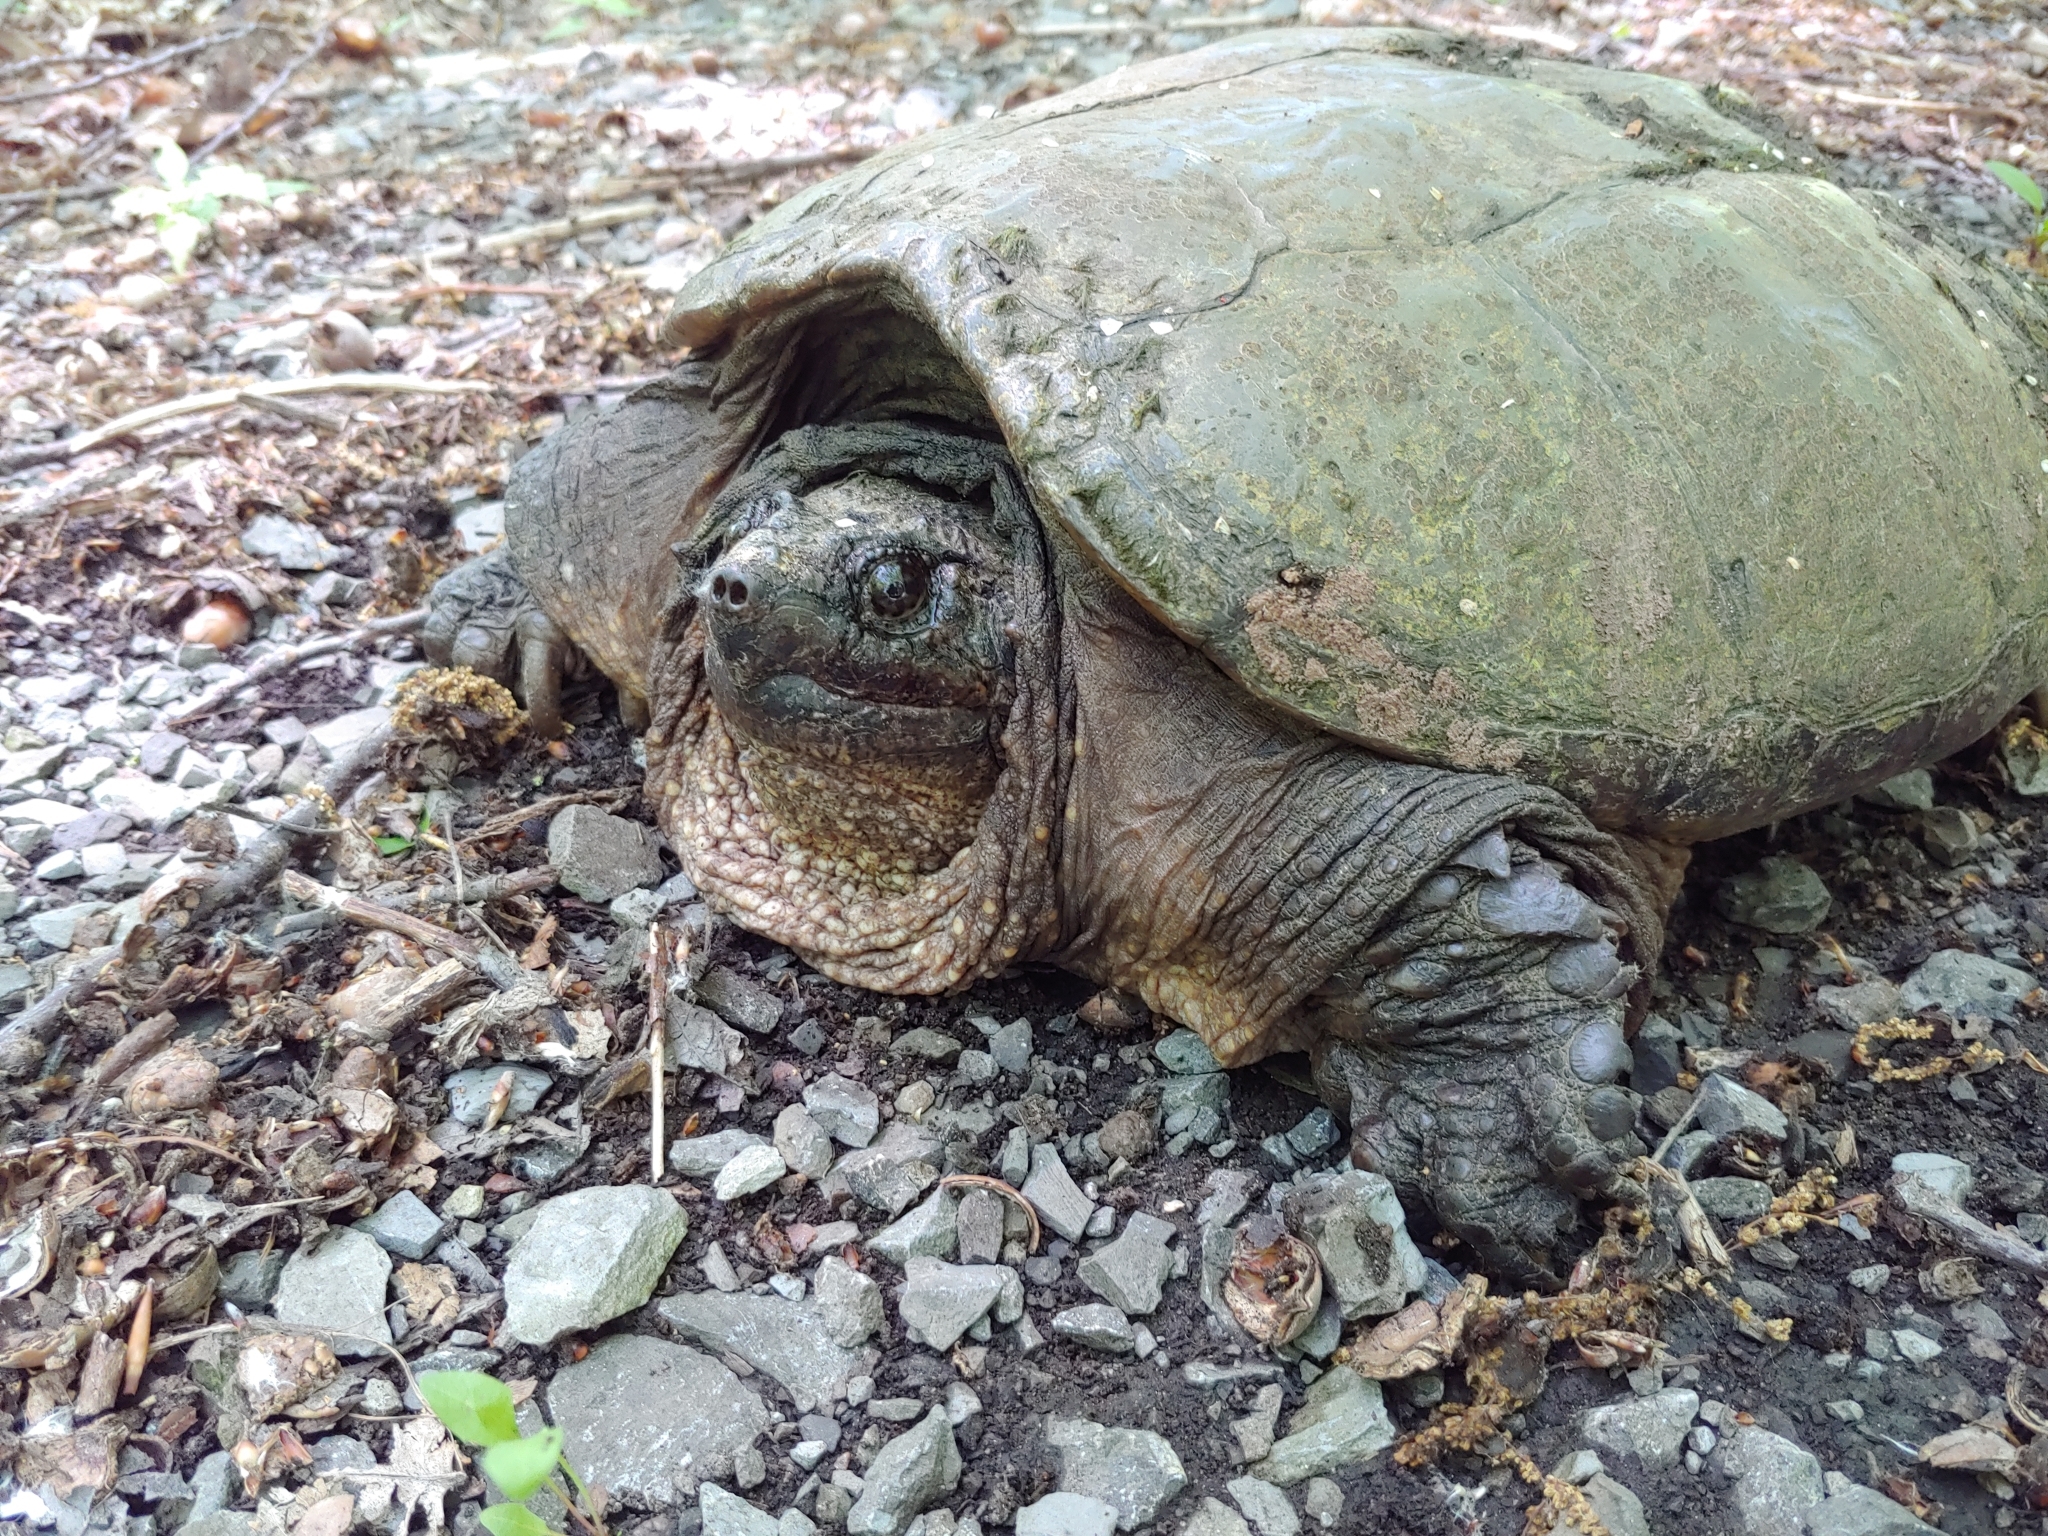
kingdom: Animalia
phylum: Chordata
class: Testudines
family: Chelydridae
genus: Chelydra
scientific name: Chelydra serpentina
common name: Common snapping turtle
